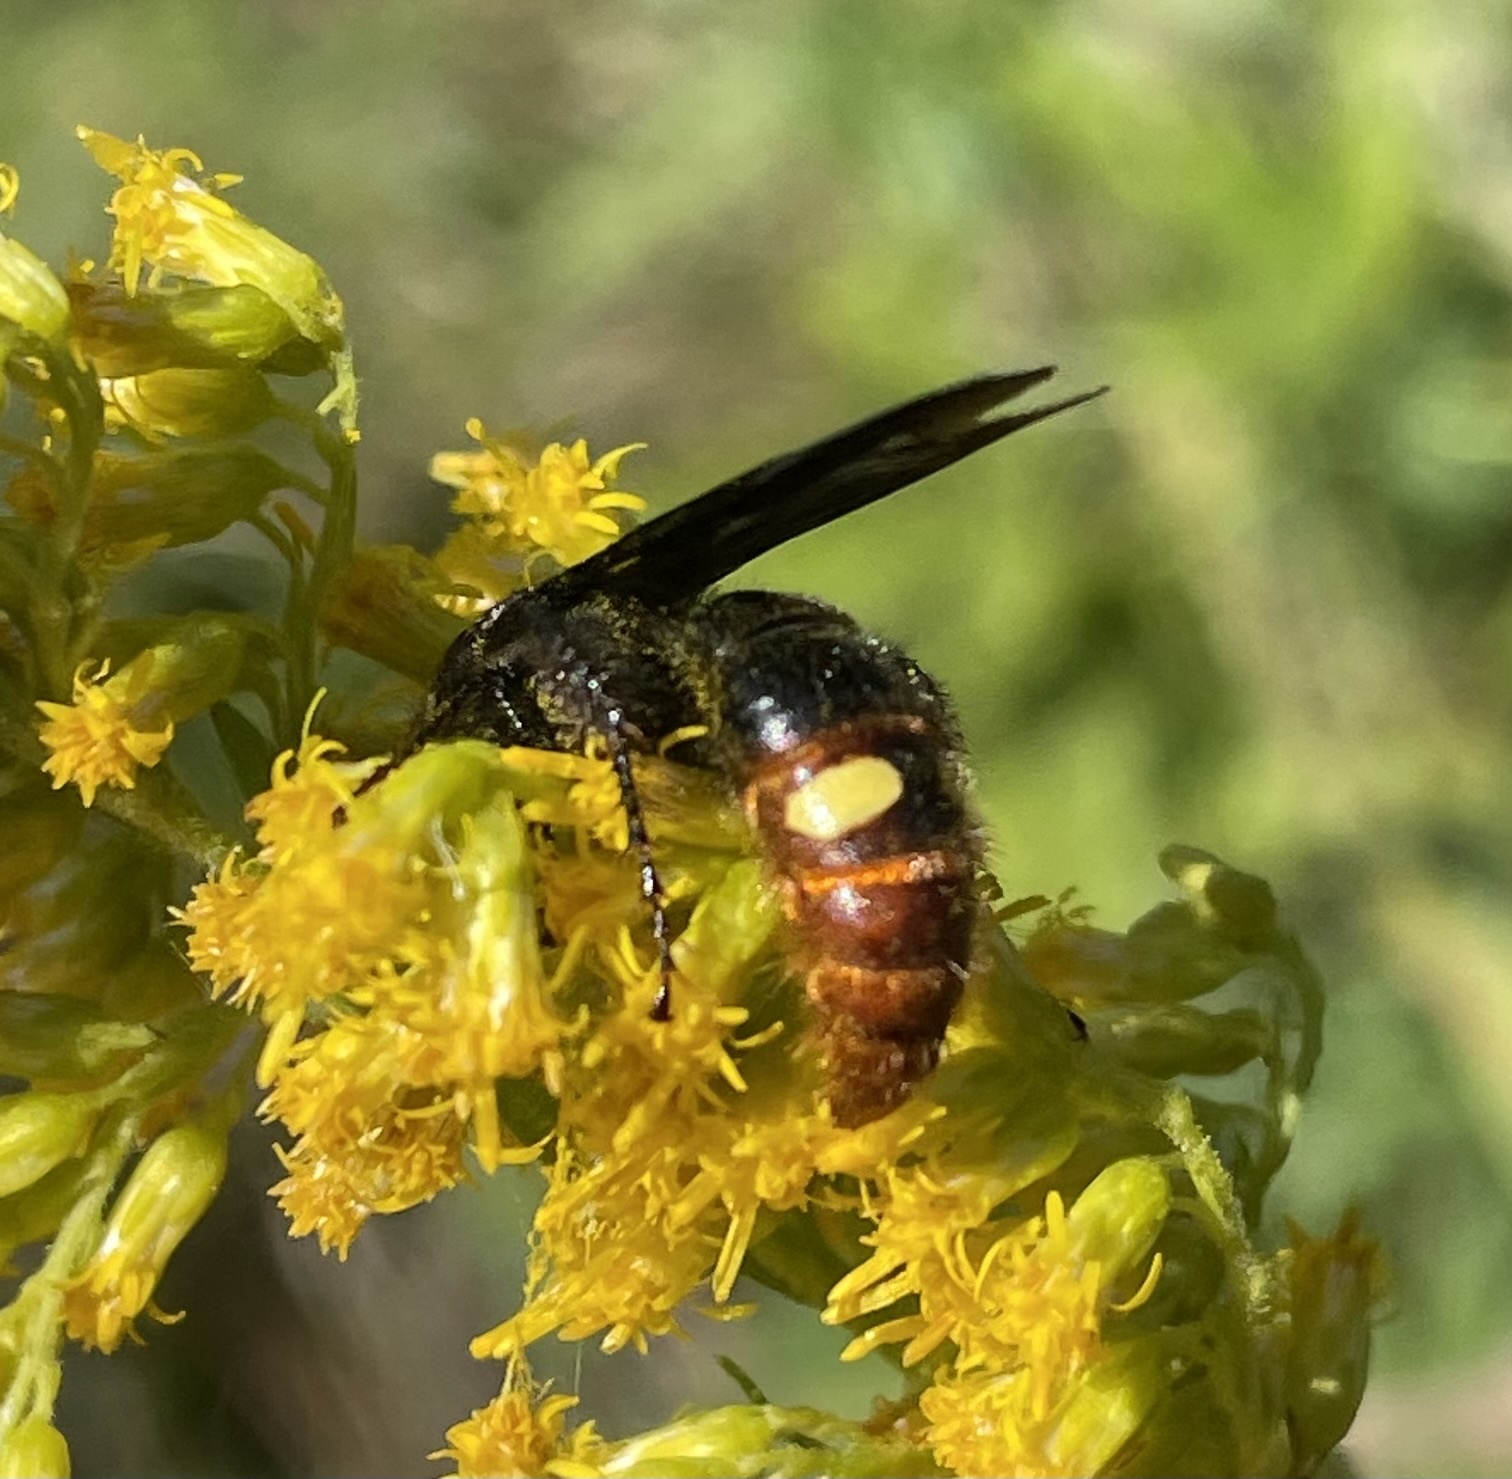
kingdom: Animalia
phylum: Arthropoda
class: Insecta
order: Hymenoptera
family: Scoliidae
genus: Scolia
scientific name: Scolia dubia
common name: Blue-winged scoliid wasp
